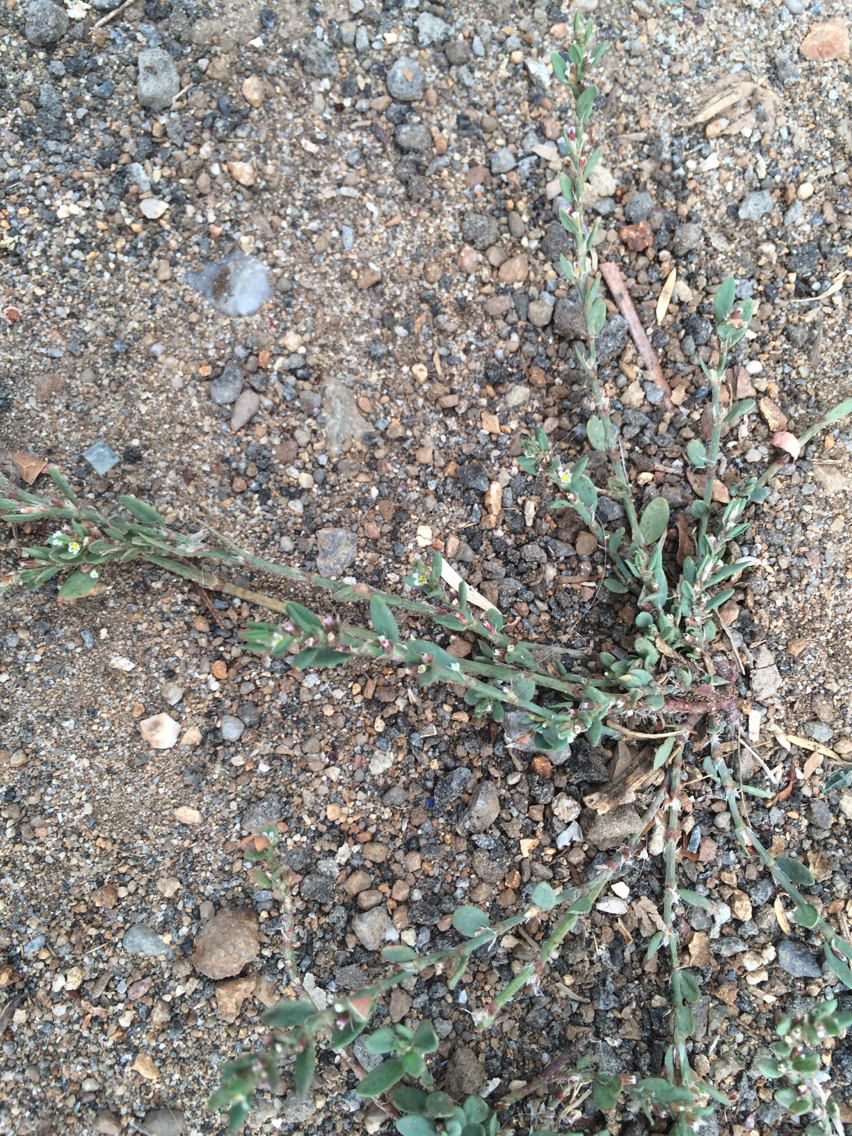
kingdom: Plantae
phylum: Tracheophyta
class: Magnoliopsida
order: Caryophyllales
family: Polygonaceae
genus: Polygonum
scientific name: Polygonum aviculare
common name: Prostrate knotweed
